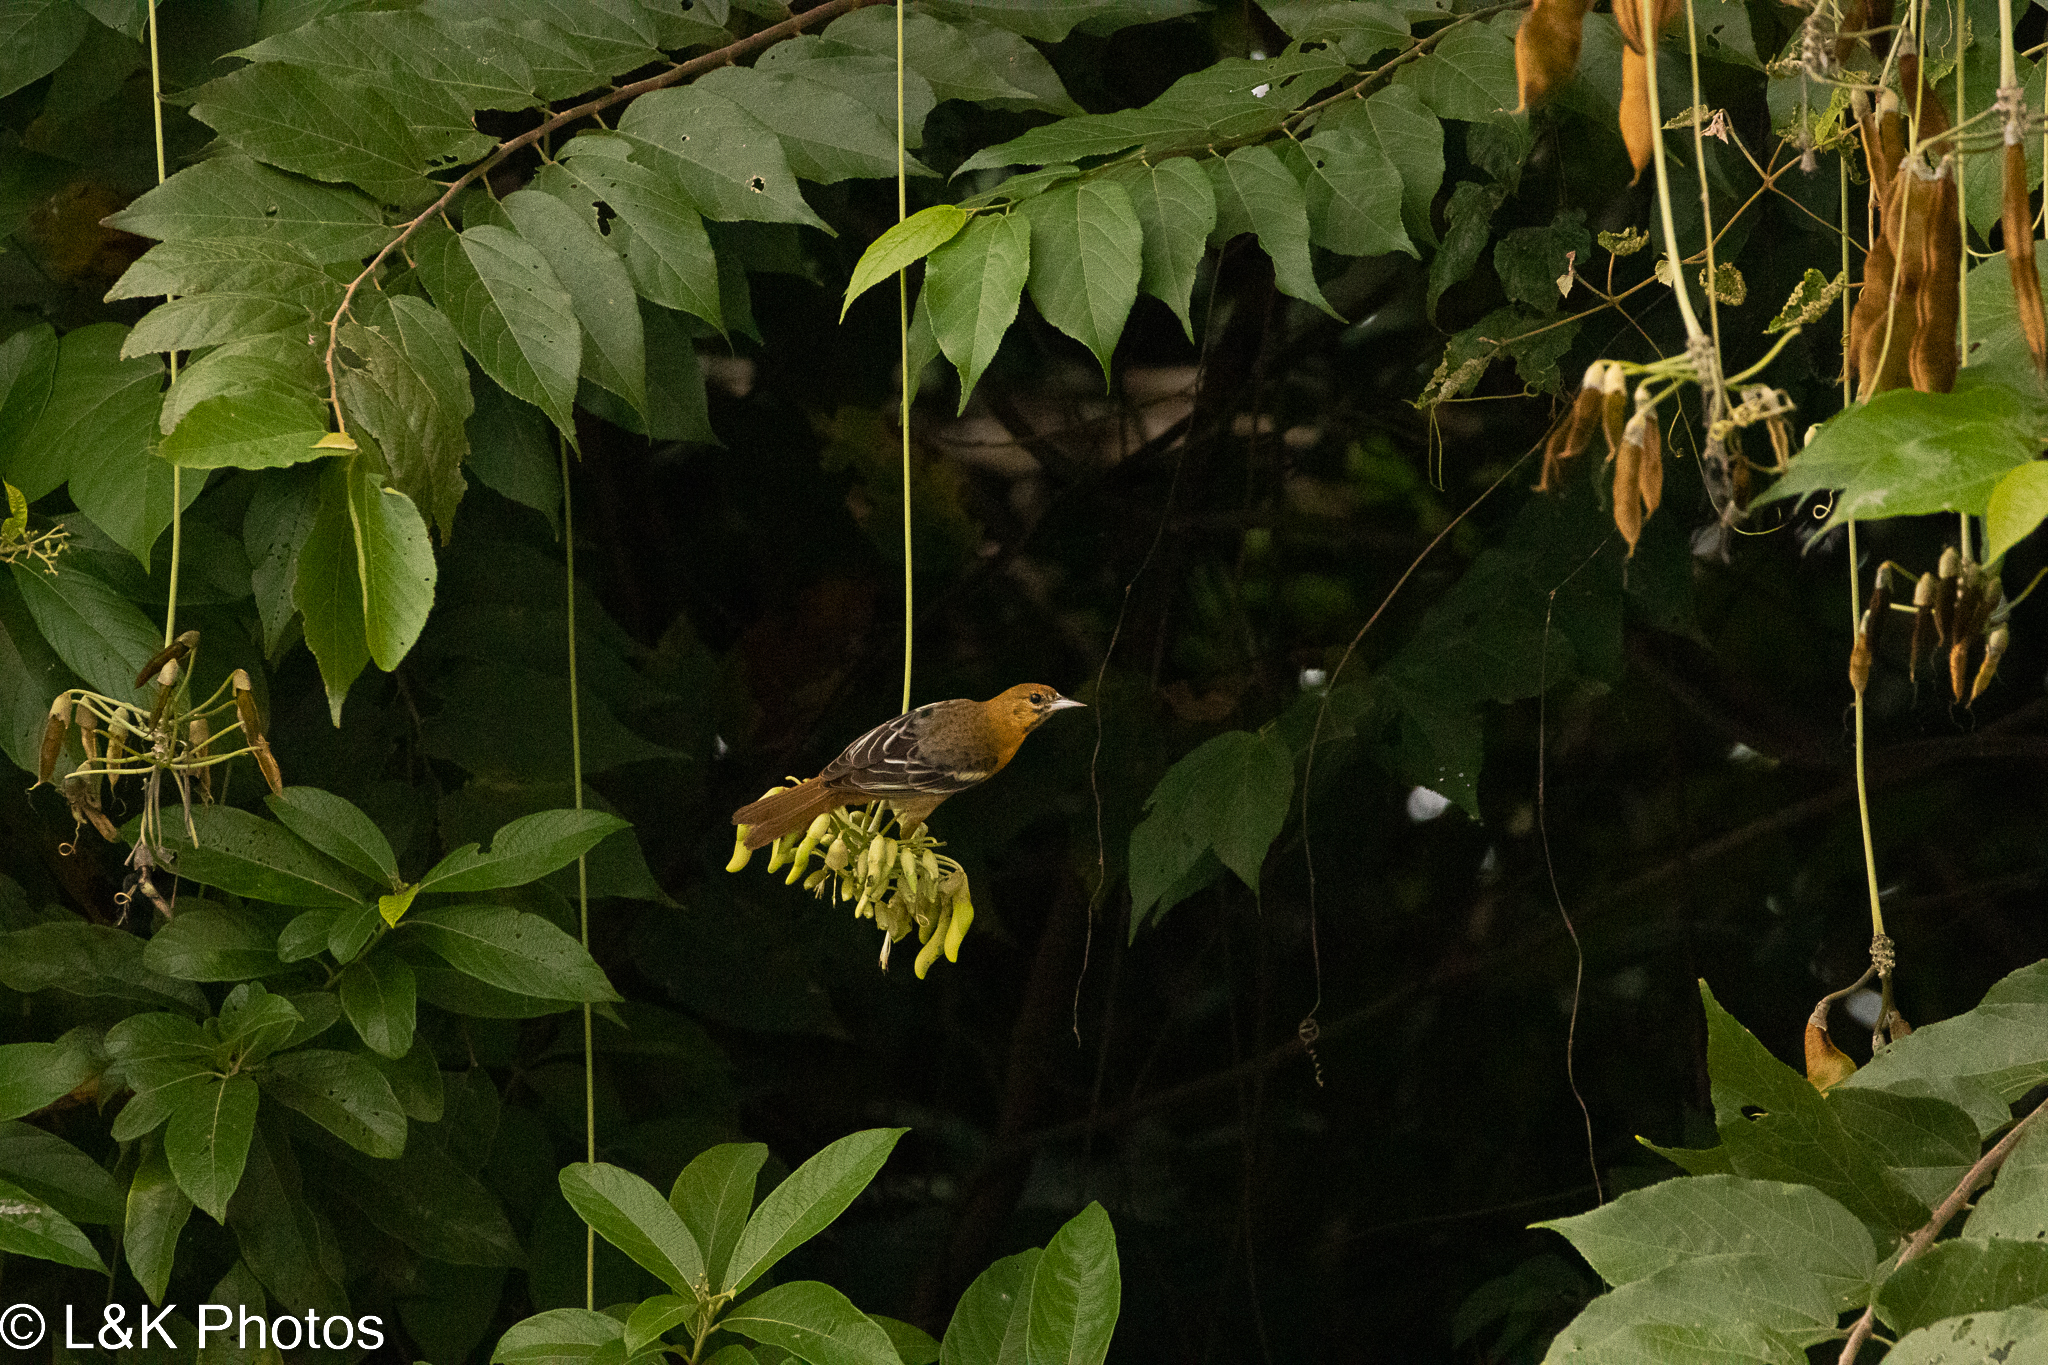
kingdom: Animalia
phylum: Chordata
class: Aves
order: Passeriformes
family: Icteridae
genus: Icterus
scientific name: Icterus galbula
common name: Baltimore oriole
